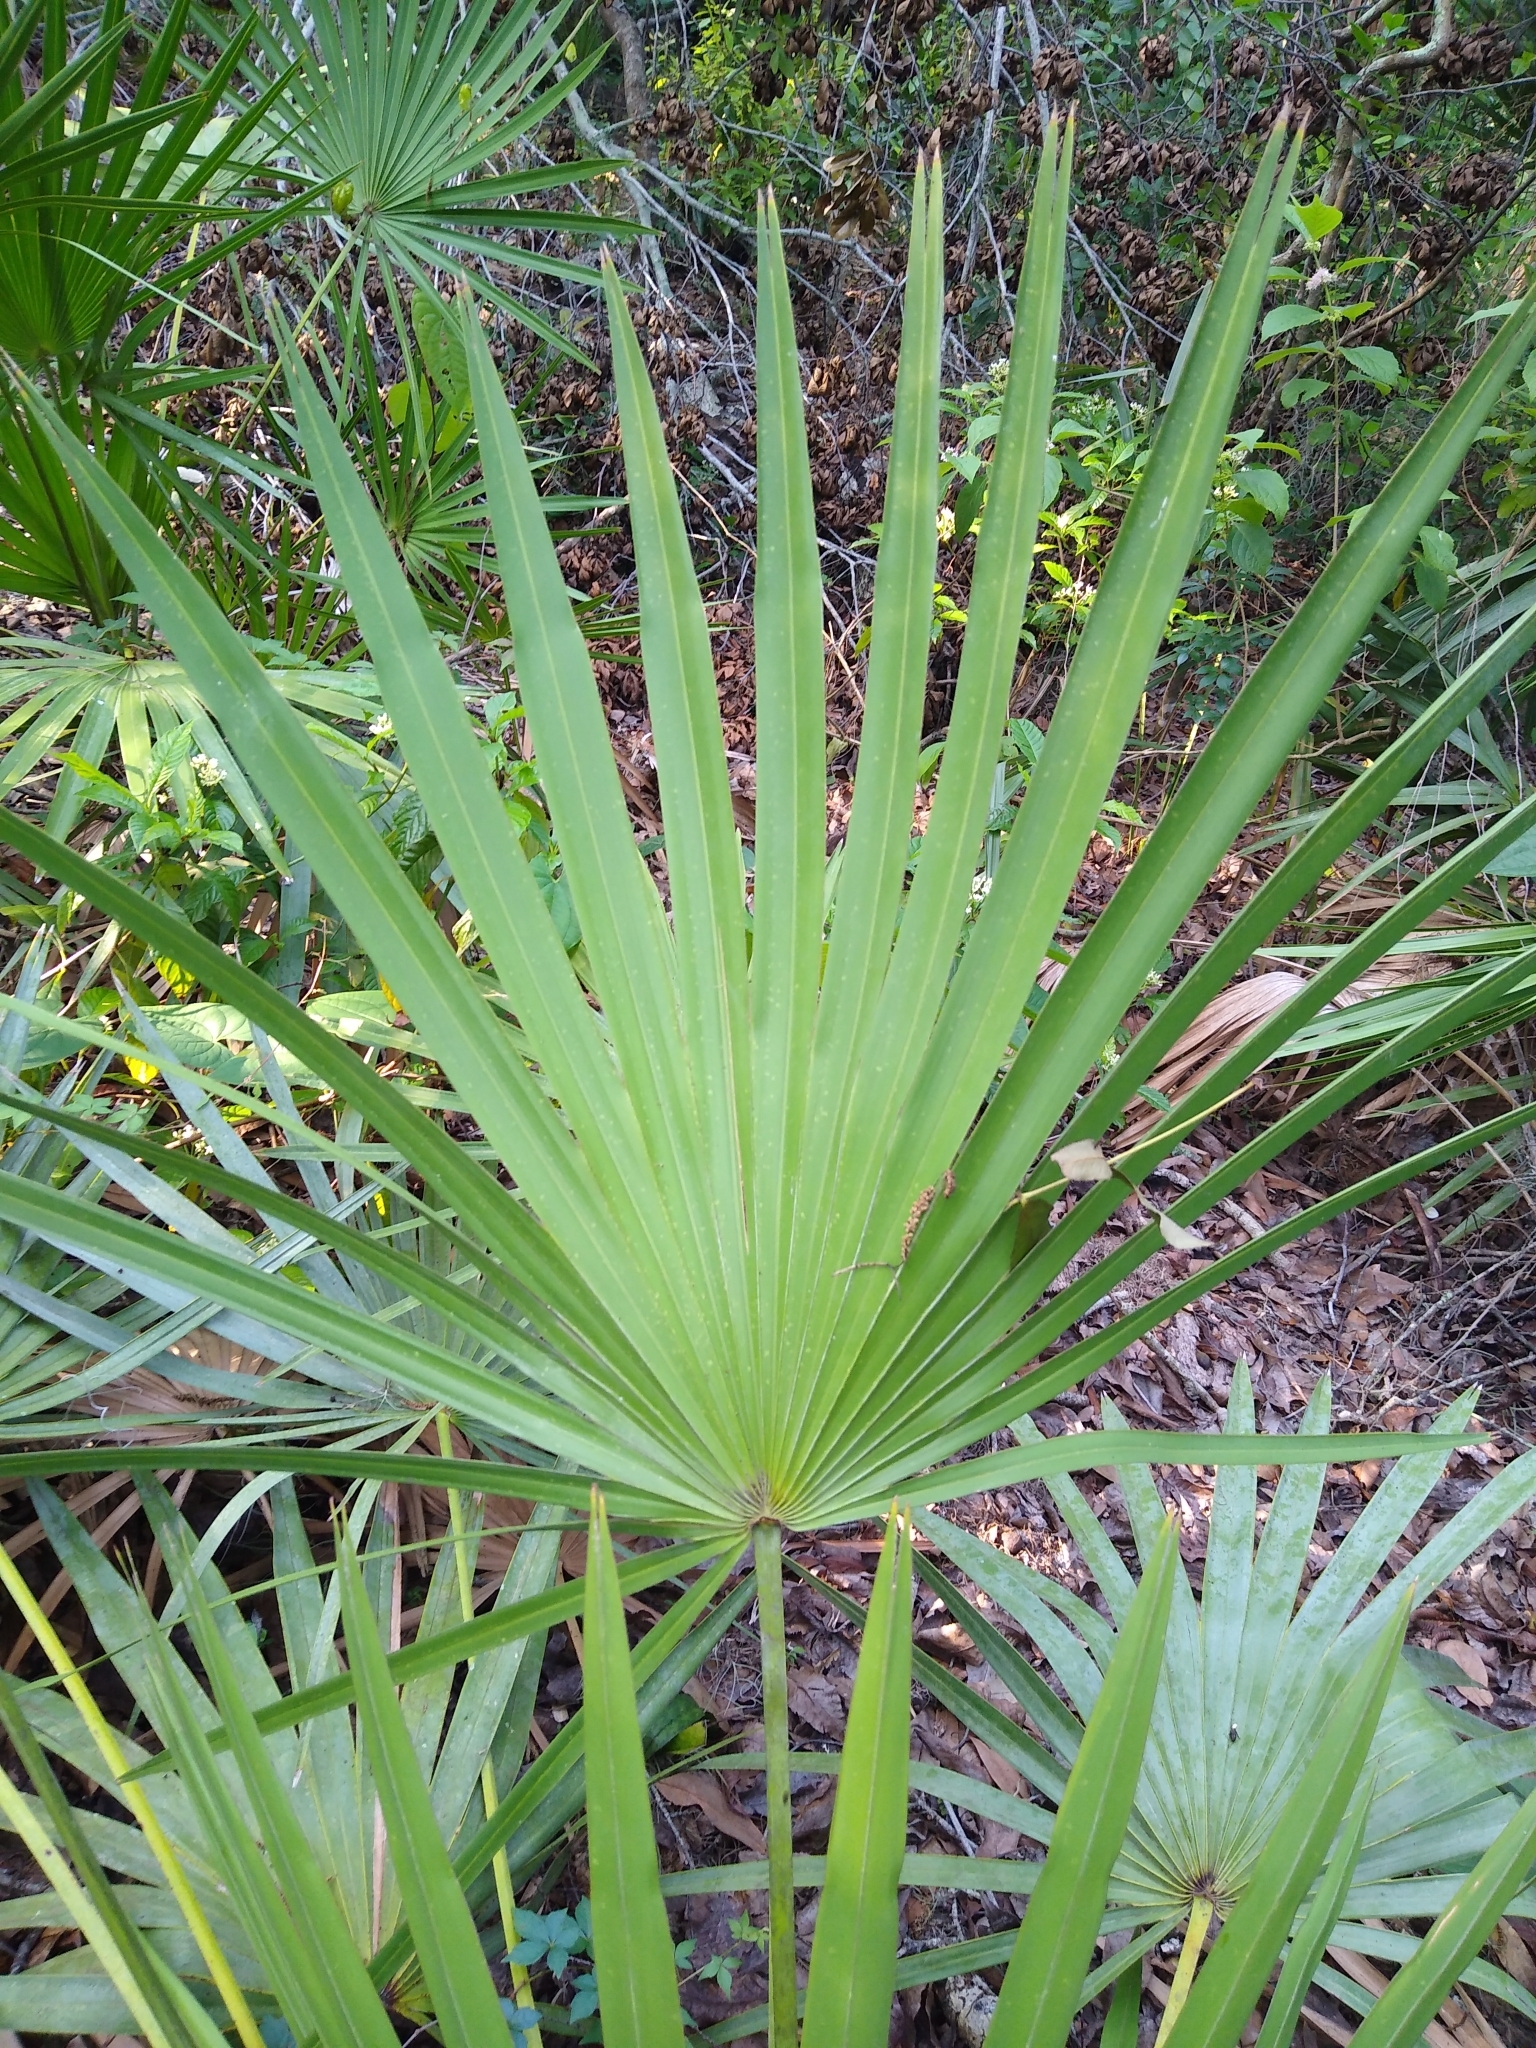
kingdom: Plantae
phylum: Tracheophyta
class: Liliopsida
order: Arecales
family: Arecaceae
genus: Serenoa
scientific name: Serenoa repens
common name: Saw-palmetto
